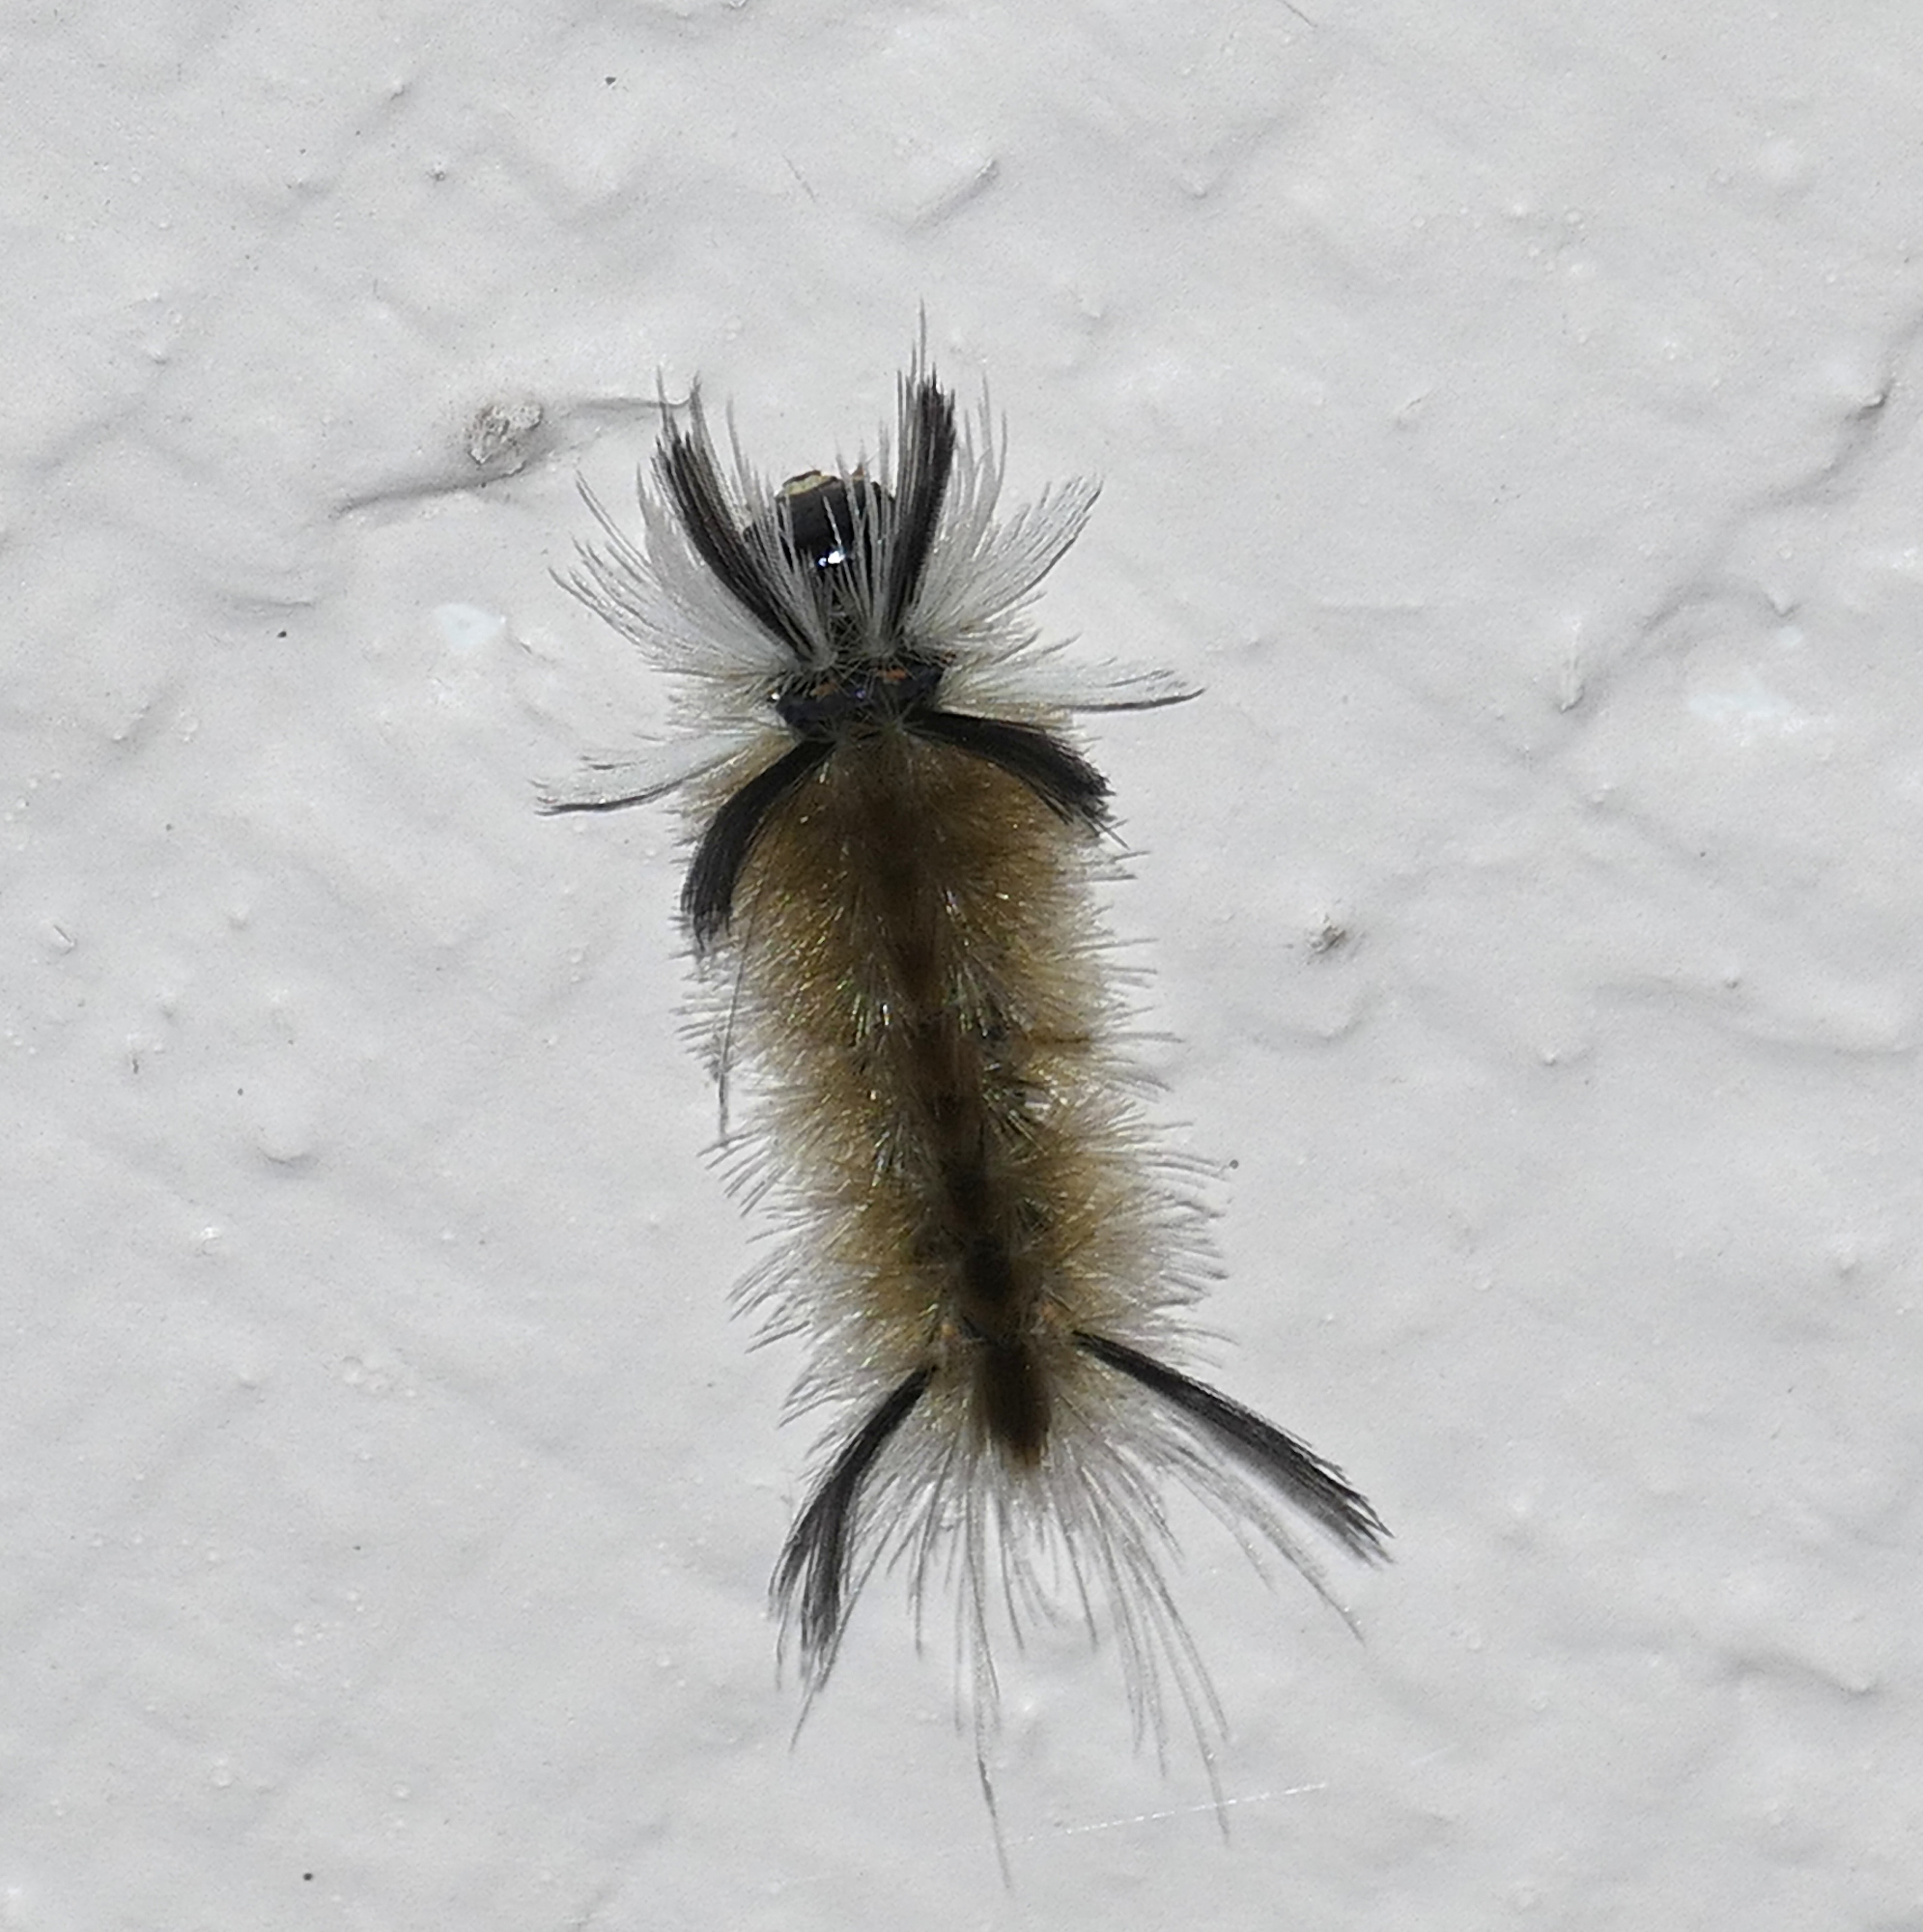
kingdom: Animalia
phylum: Arthropoda
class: Insecta
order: Lepidoptera
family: Erebidae
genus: Halysidota
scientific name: Halysidota tessellaris
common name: Banded tussock moth
